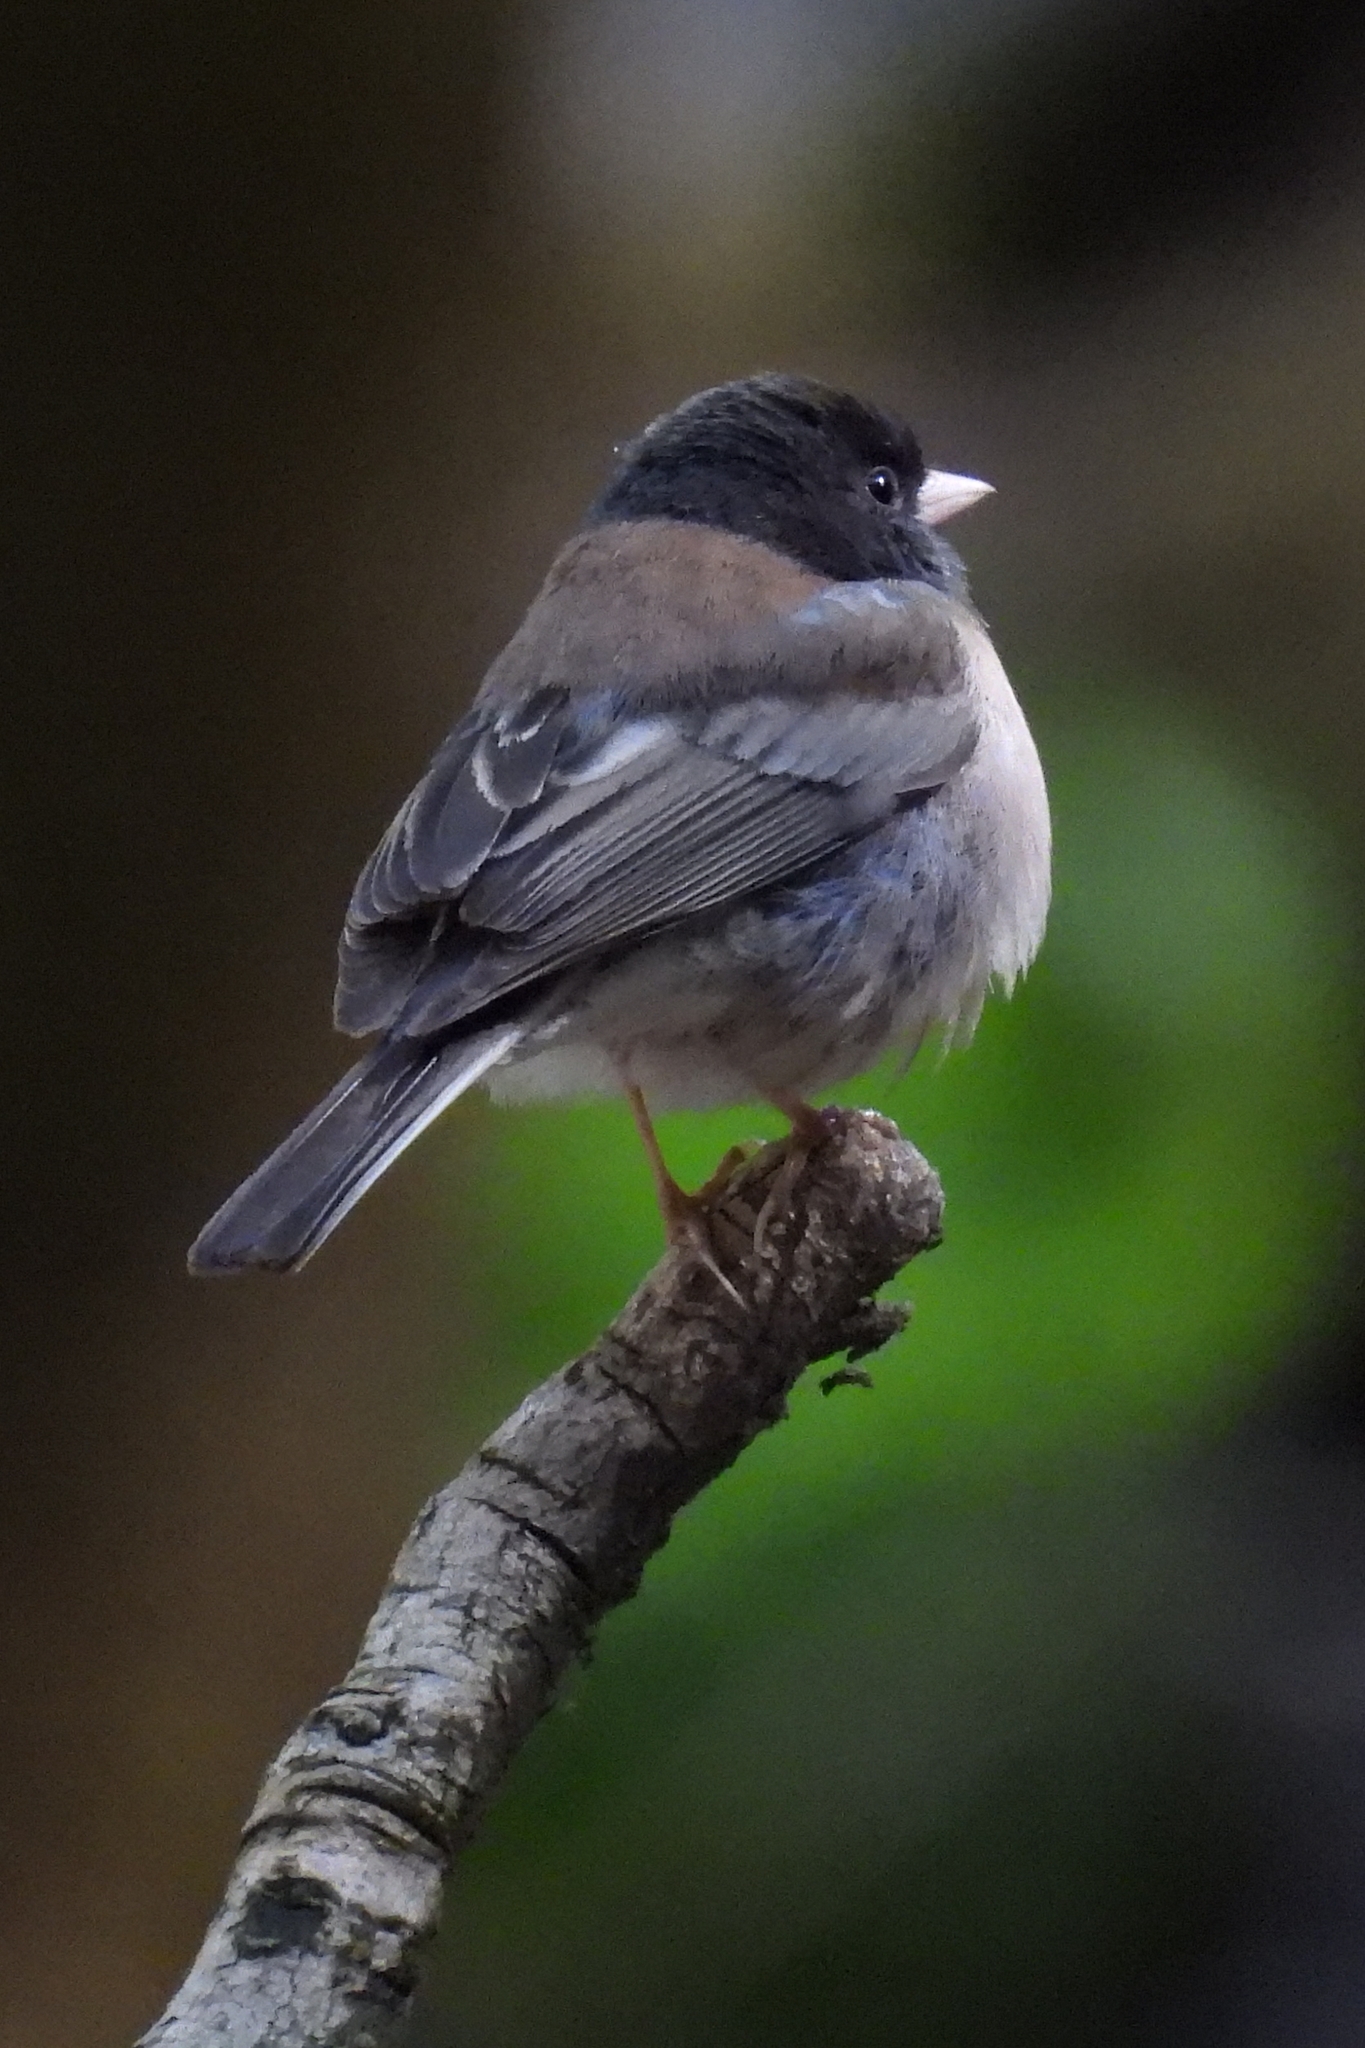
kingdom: Animalia
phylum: Chordata
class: Aves
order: Passeriformes
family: Passerellidae
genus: Junco
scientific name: Junco hyemalis
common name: Dark-eyed junco
